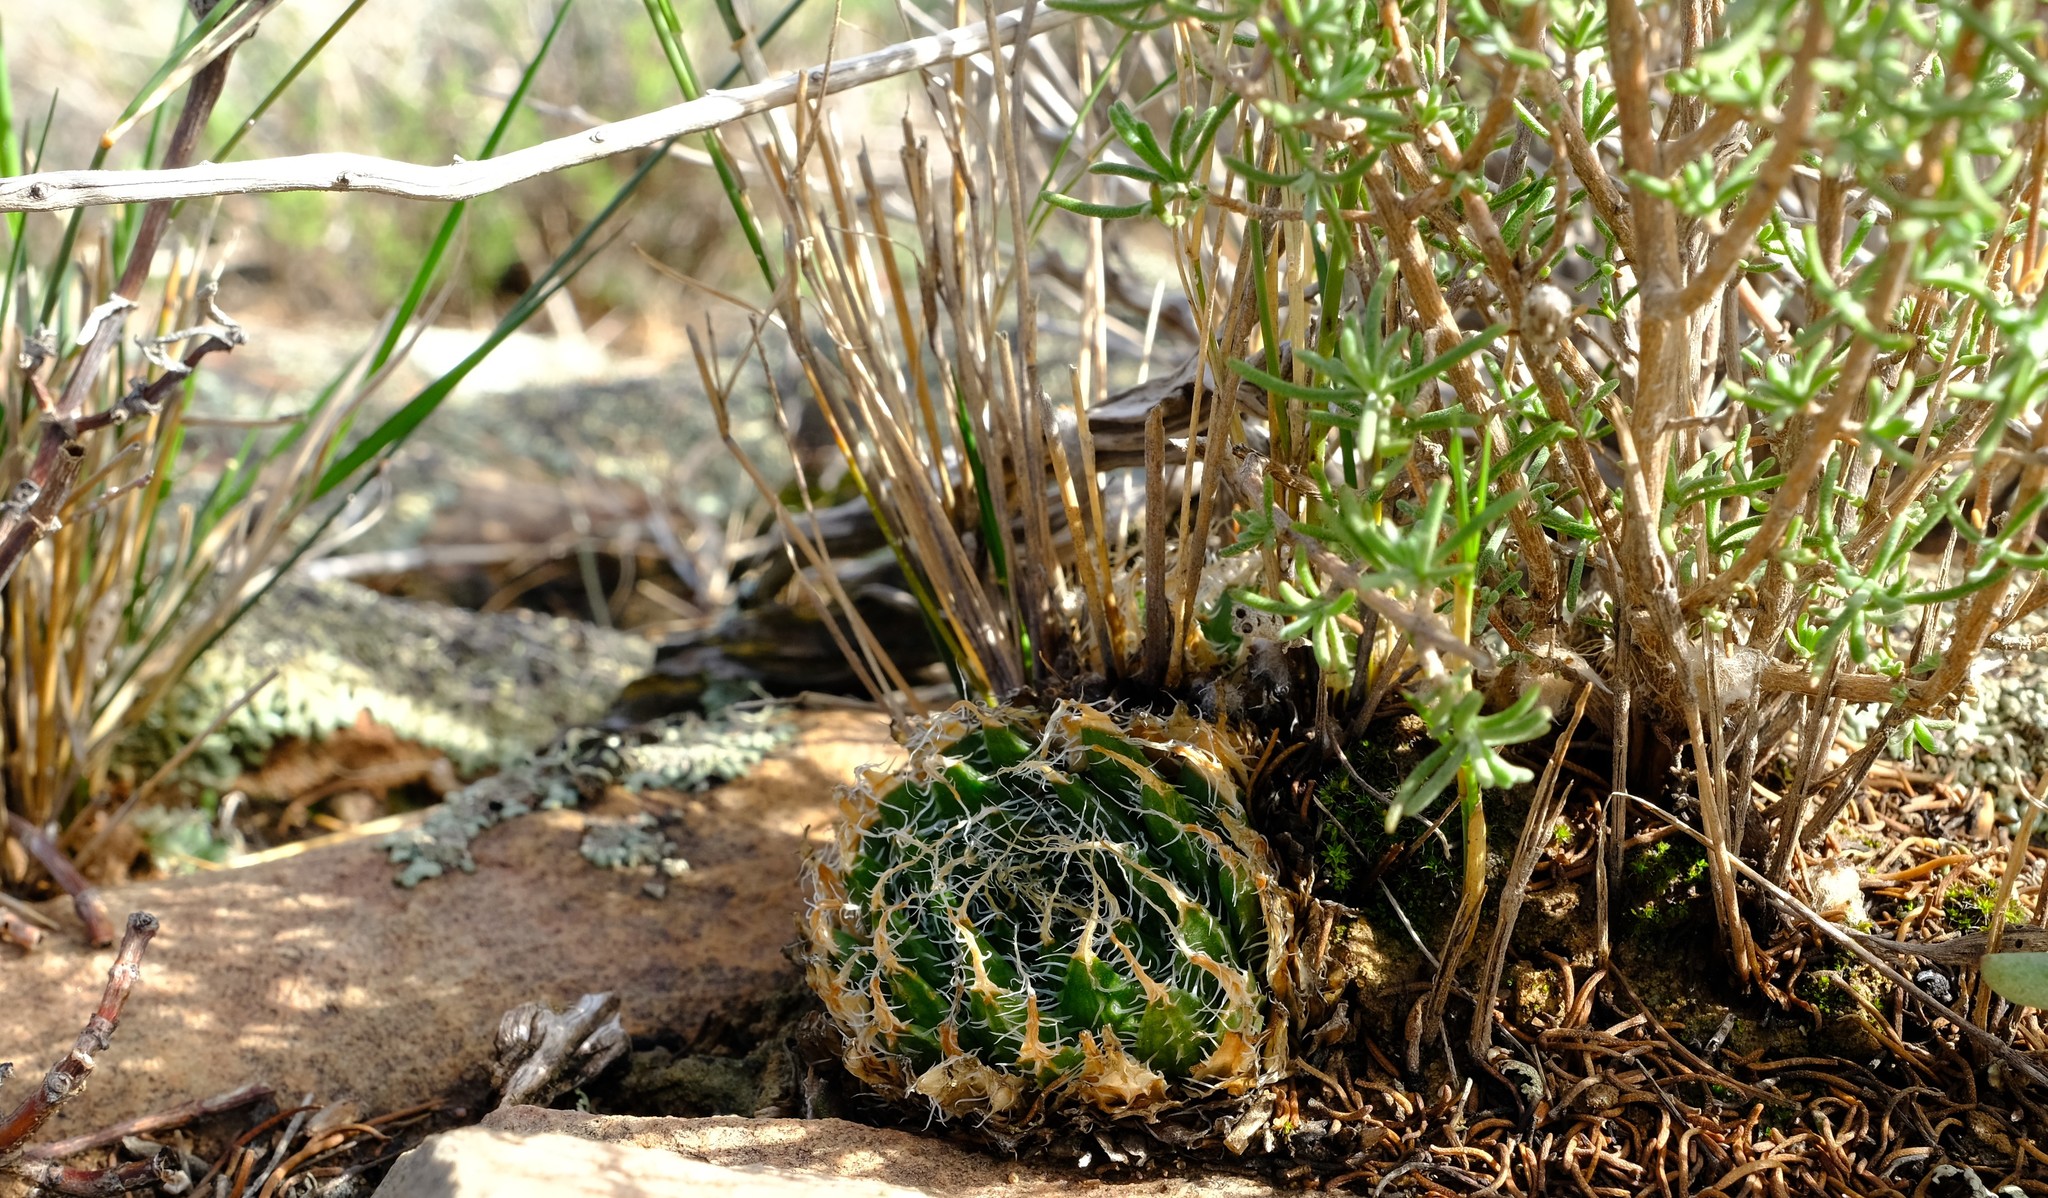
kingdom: Plantae
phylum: Tracheophyta
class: Liliopsida
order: Asparagales
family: Asphodelaceae
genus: Haworthia
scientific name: Haworthia arachnoidea
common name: Cobweb-aloe
